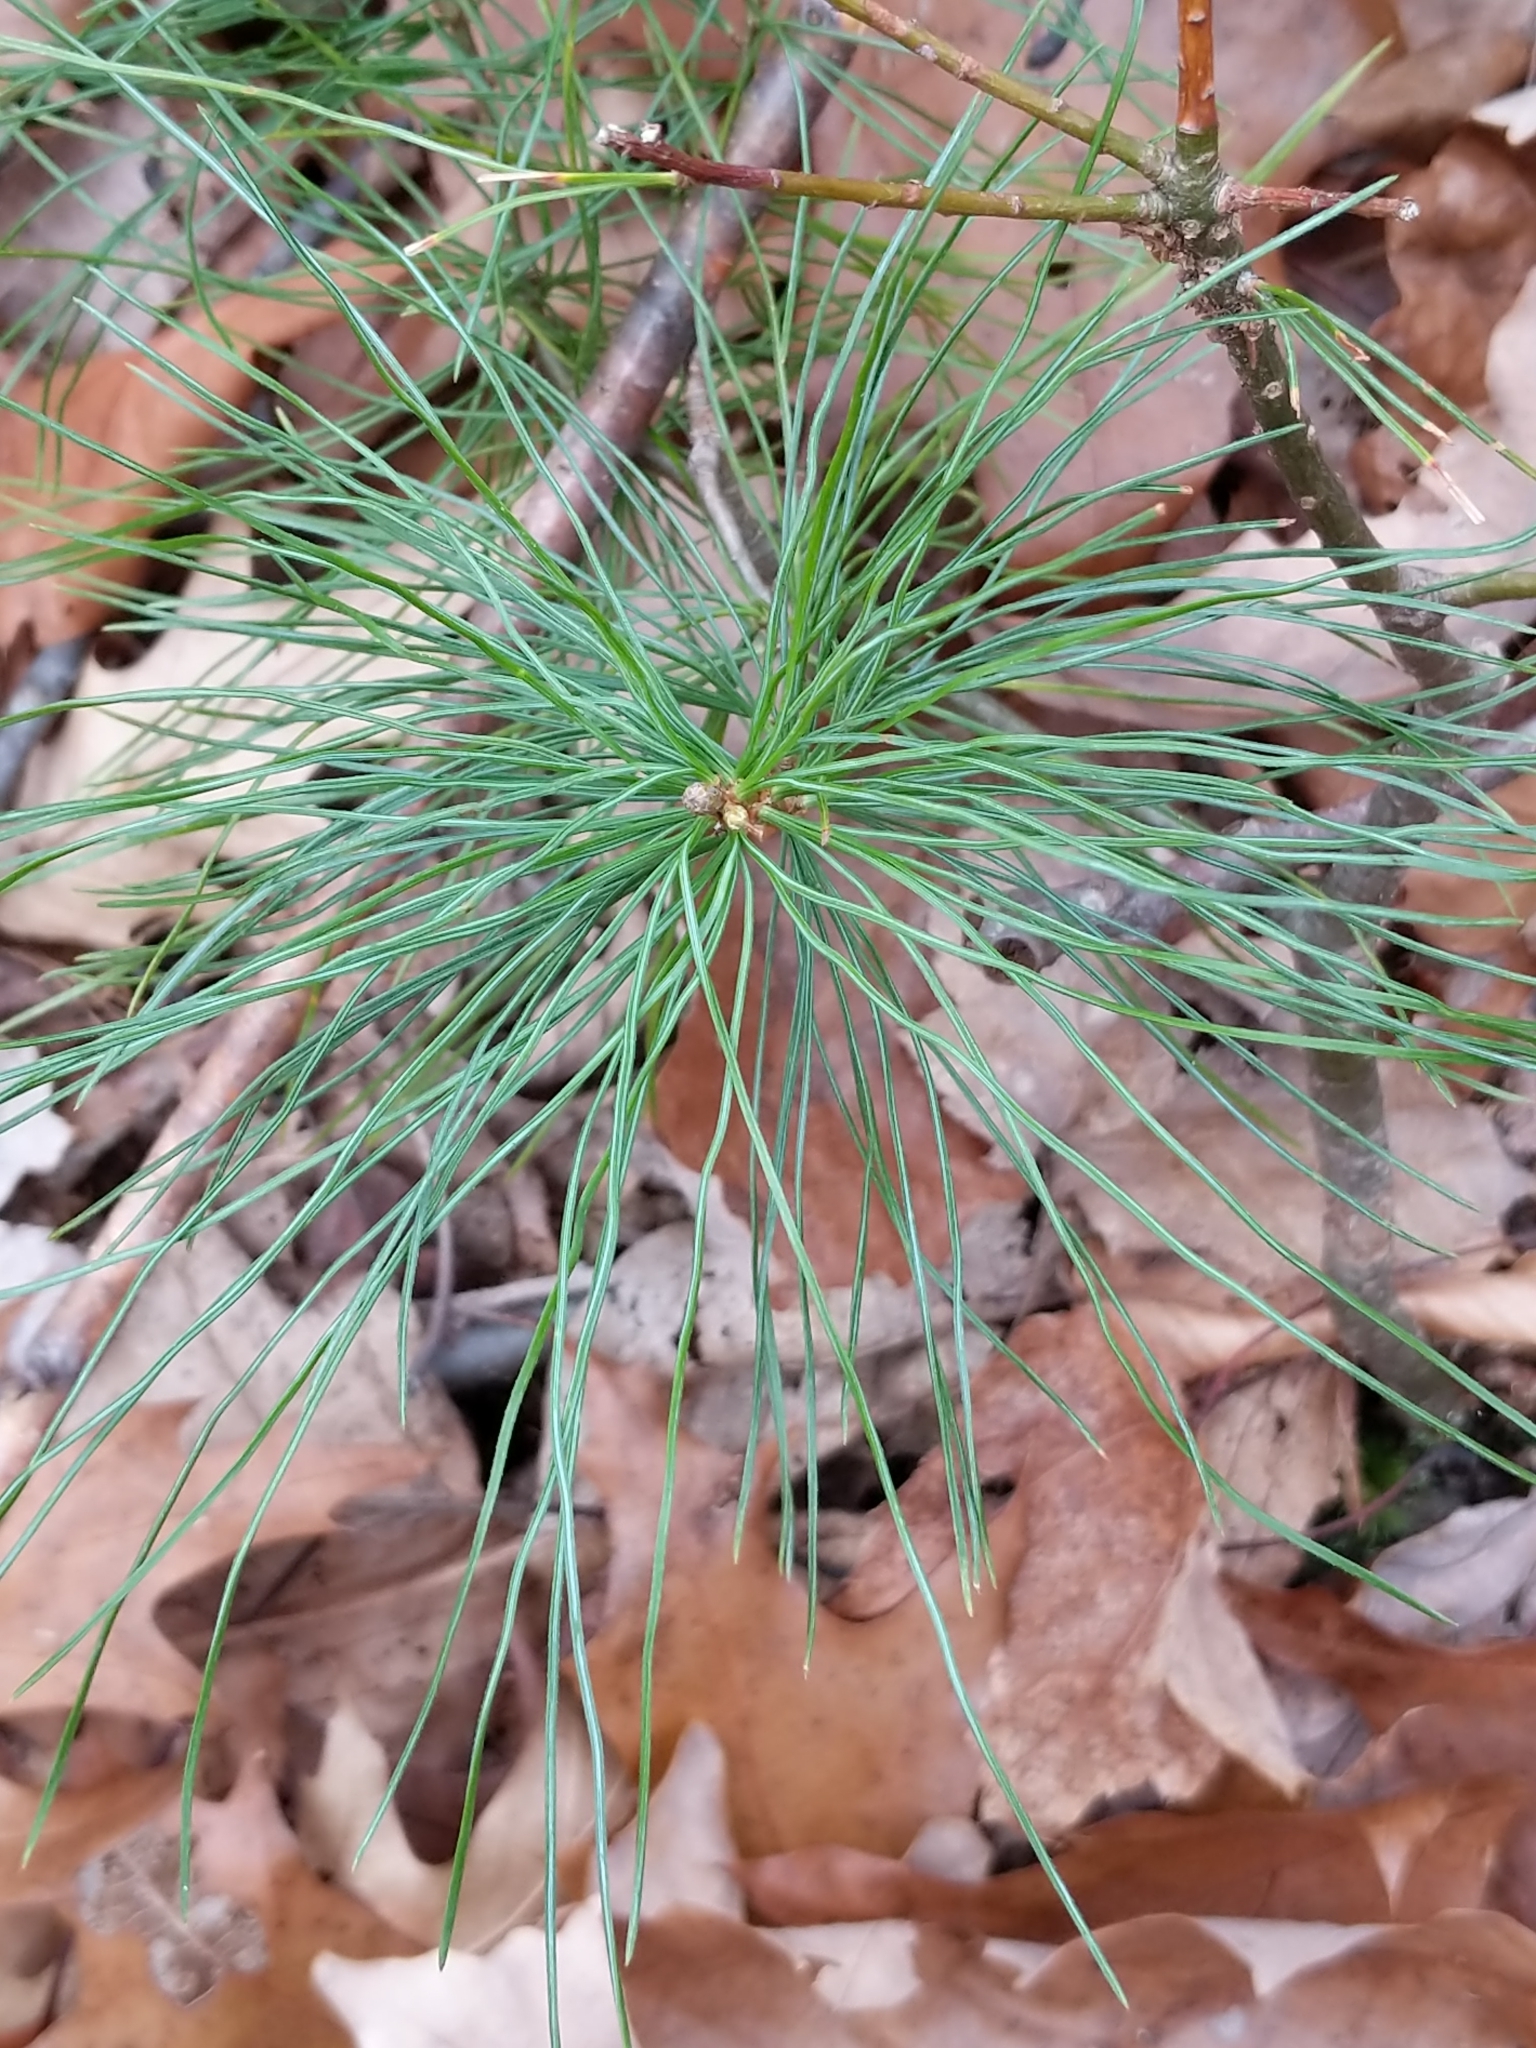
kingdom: Plantae
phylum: Tracheophyta
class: Pinopsida
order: Pinales
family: Pinaceae
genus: Pinus
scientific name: Pinus strobus
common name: Weymouth pine
